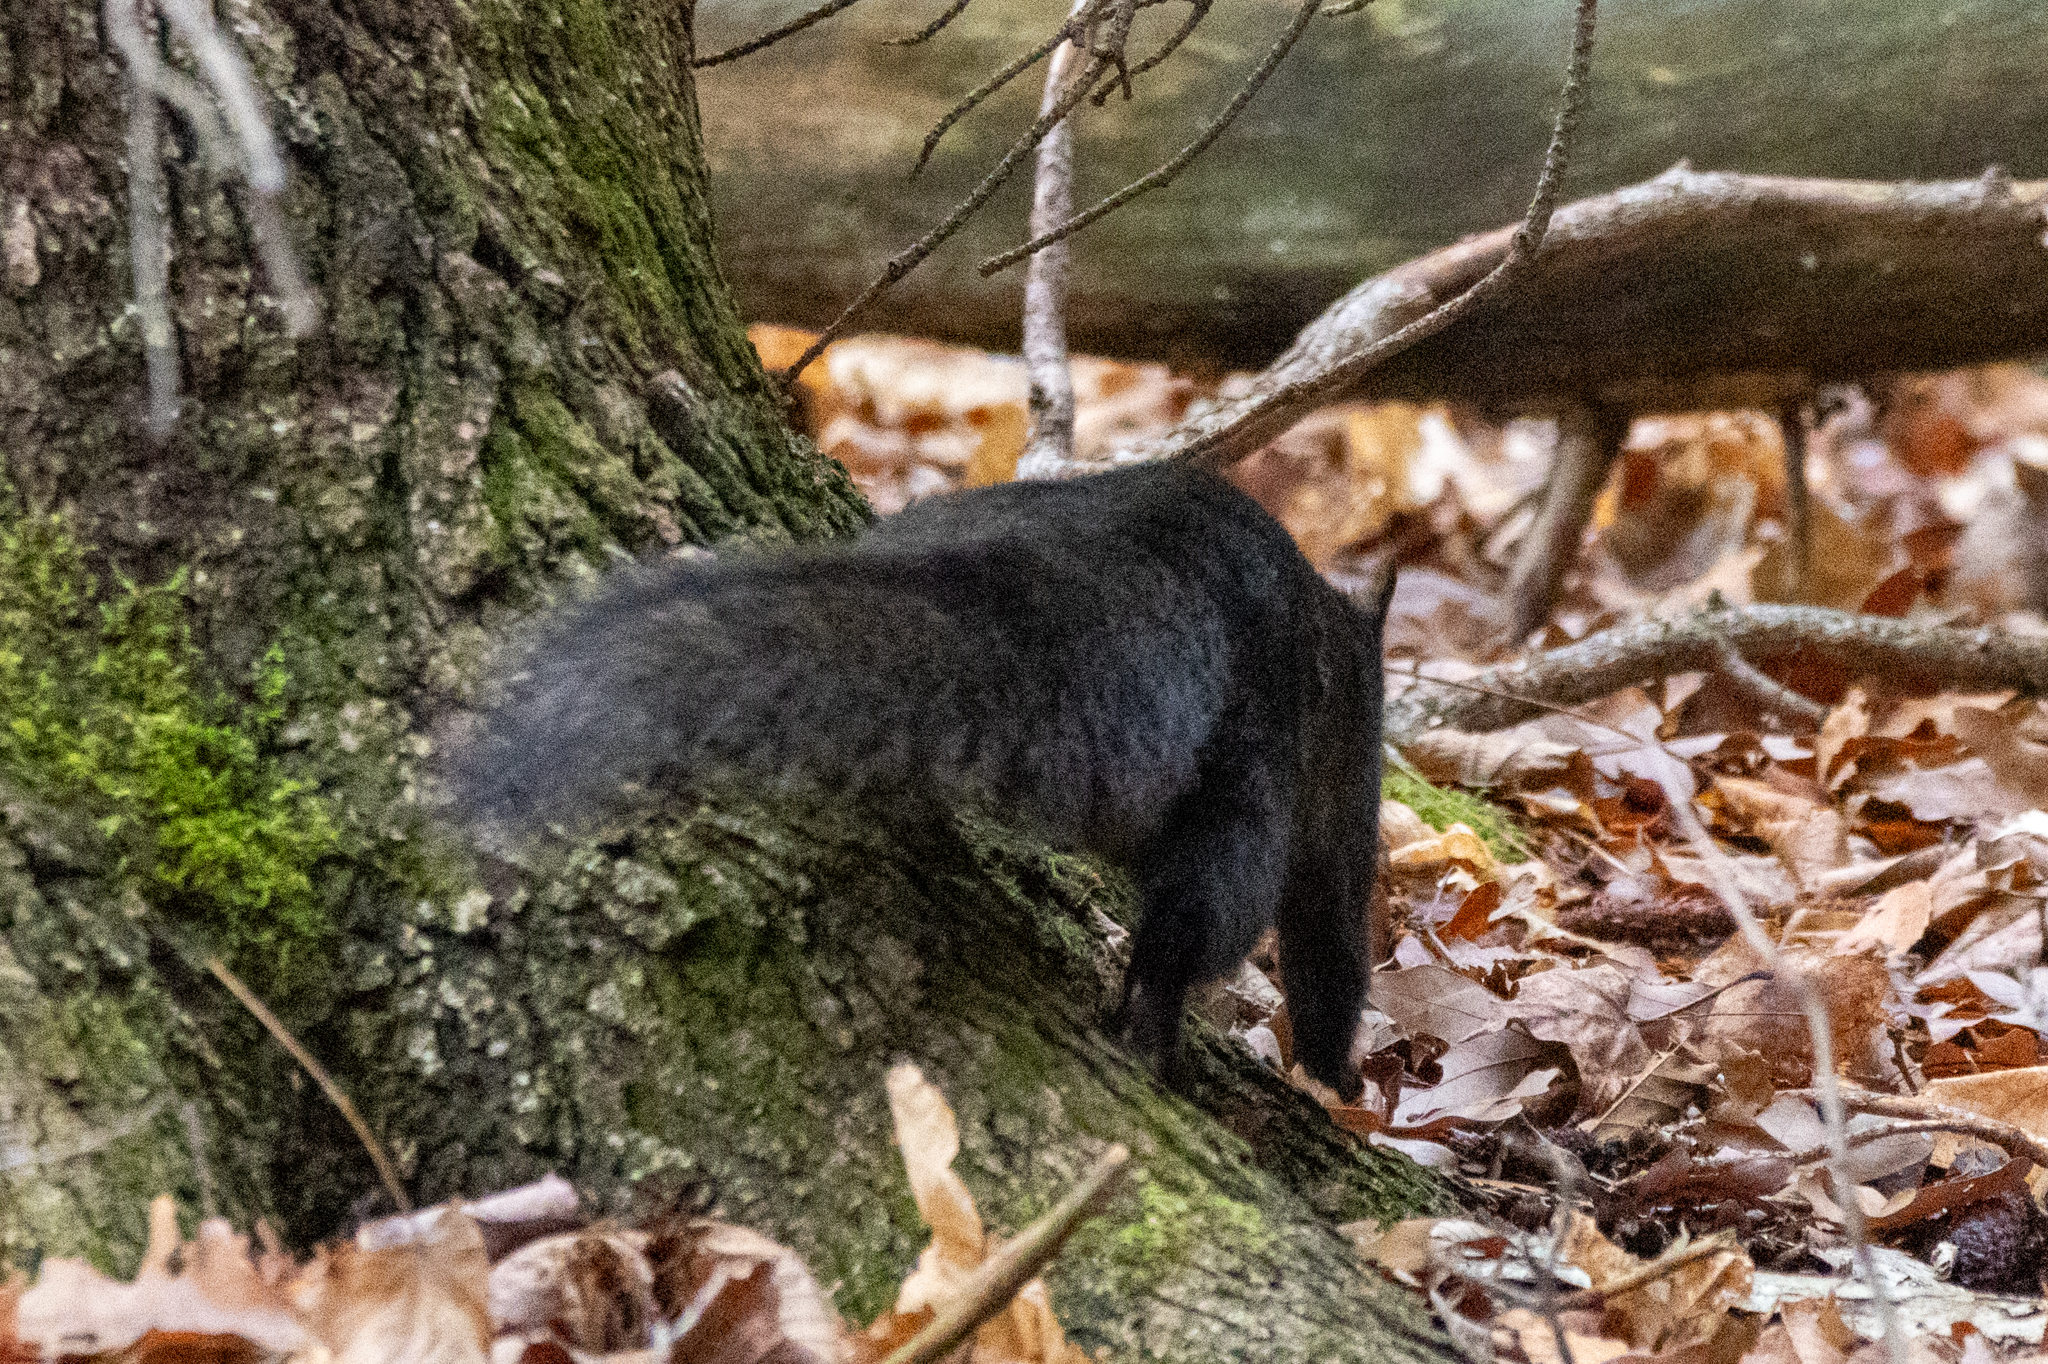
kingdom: Animalia
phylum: Chordata
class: Mammalia
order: Rodentia
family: Sciuridae
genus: Sciurus
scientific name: Sciurus carolinensis
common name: Eastern gray squirrel
